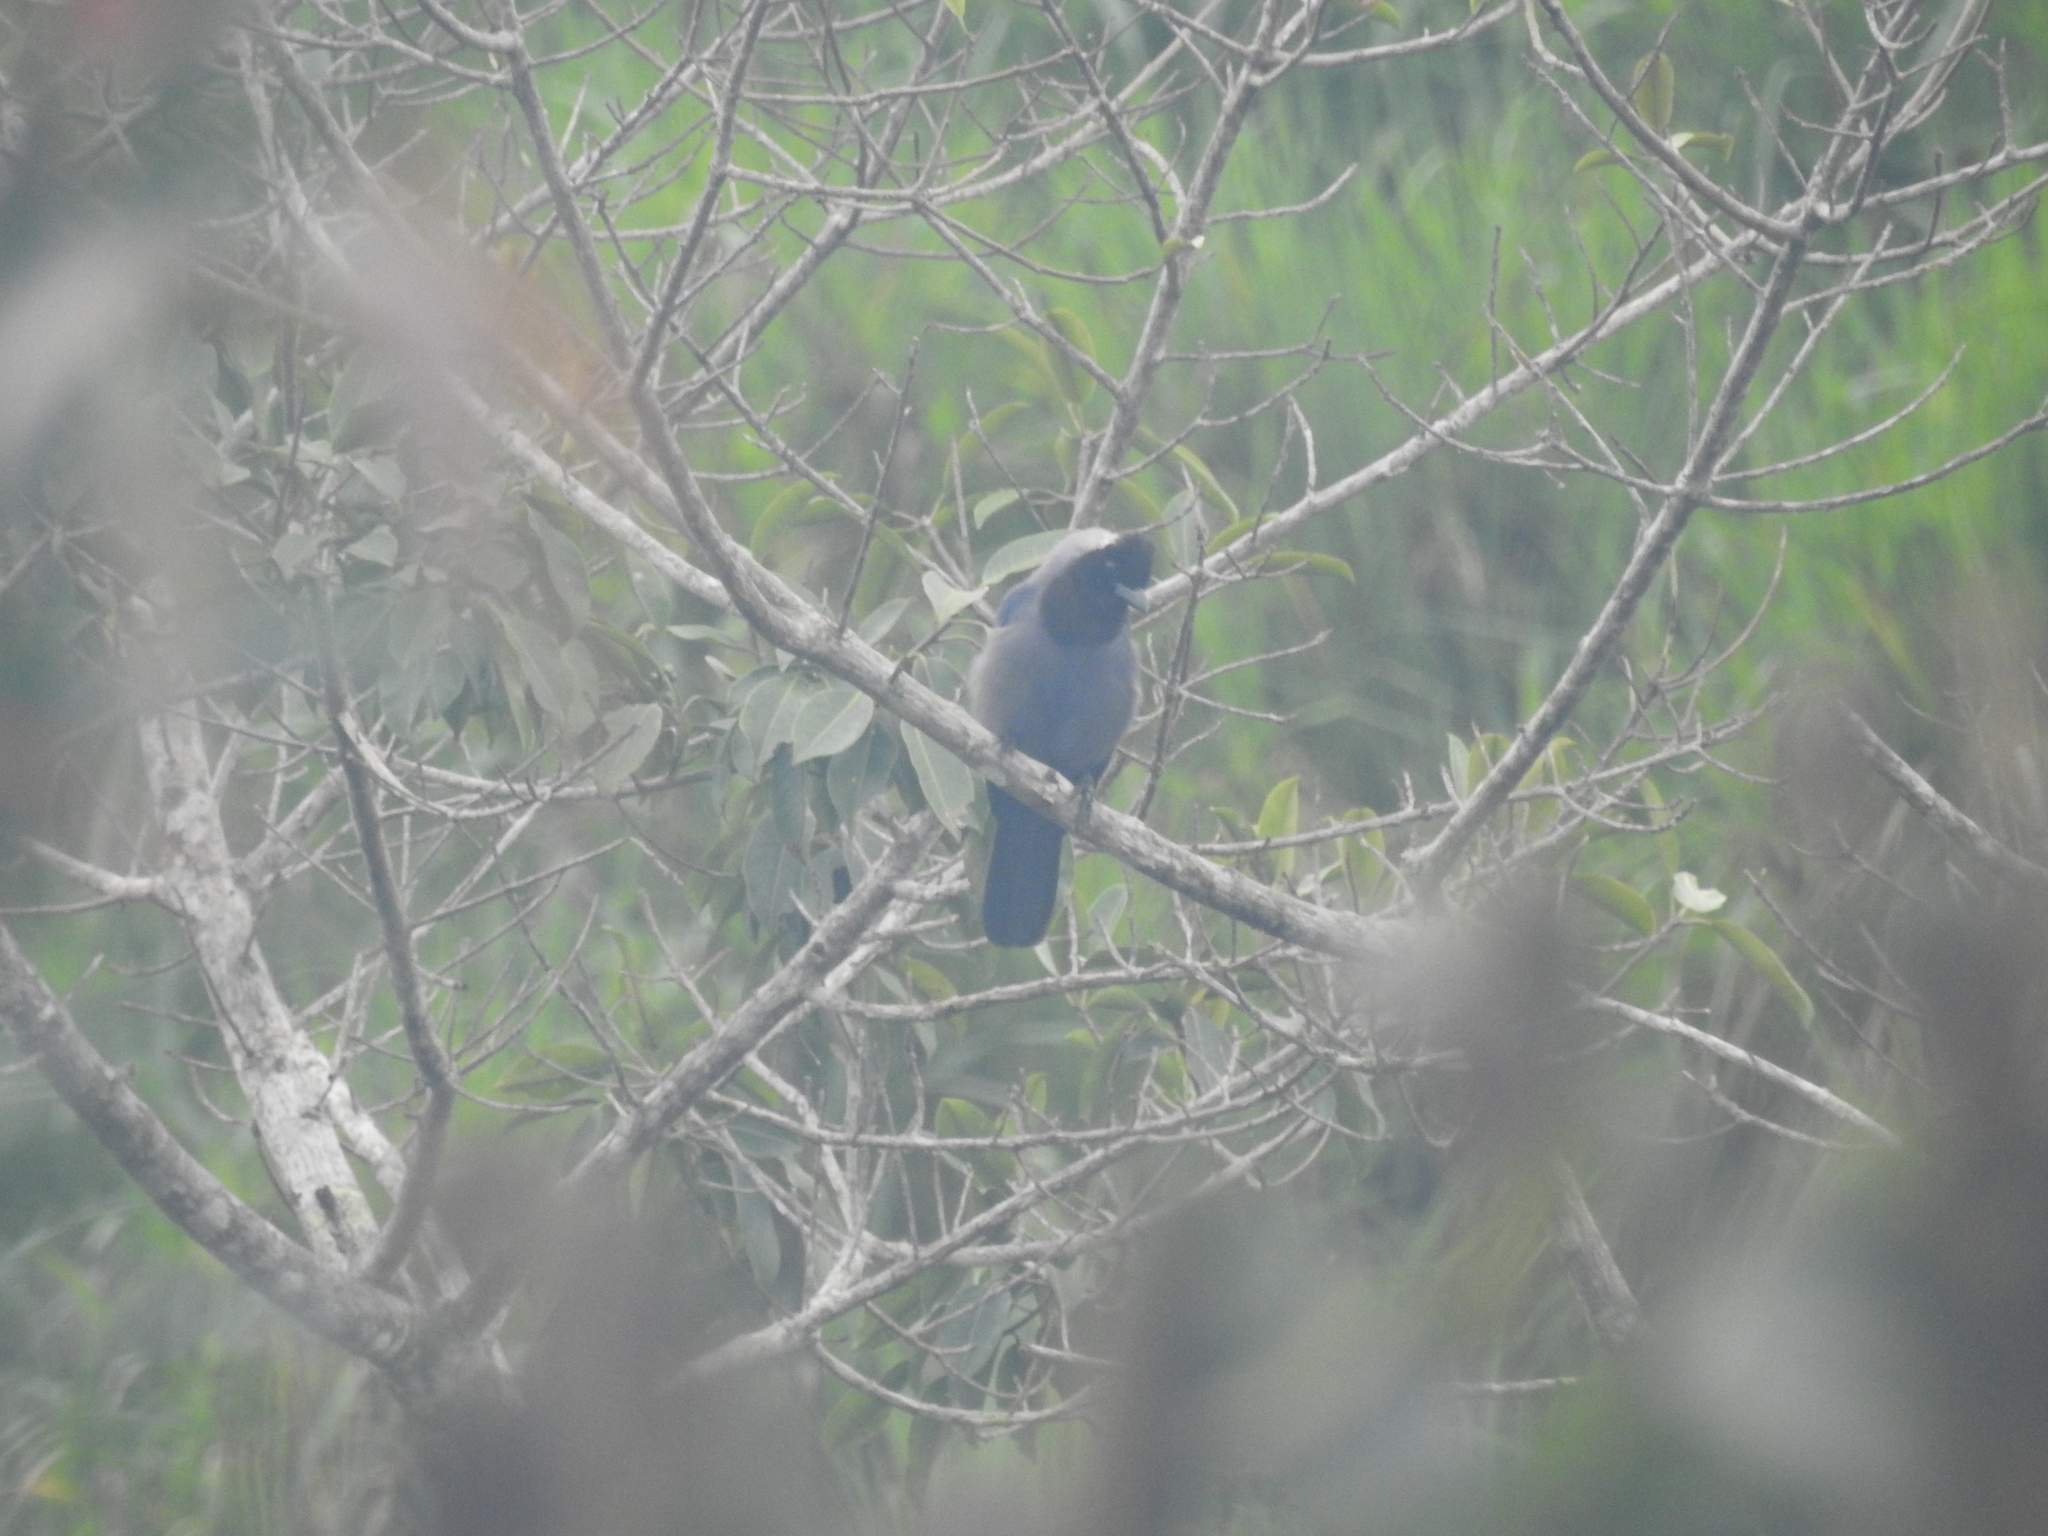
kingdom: Animalia
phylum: Chordata
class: Aves
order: Passeriformes
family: Corvidae
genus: Cyanocorax
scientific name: Cyanocorax violaceus
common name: Violaceous jay
